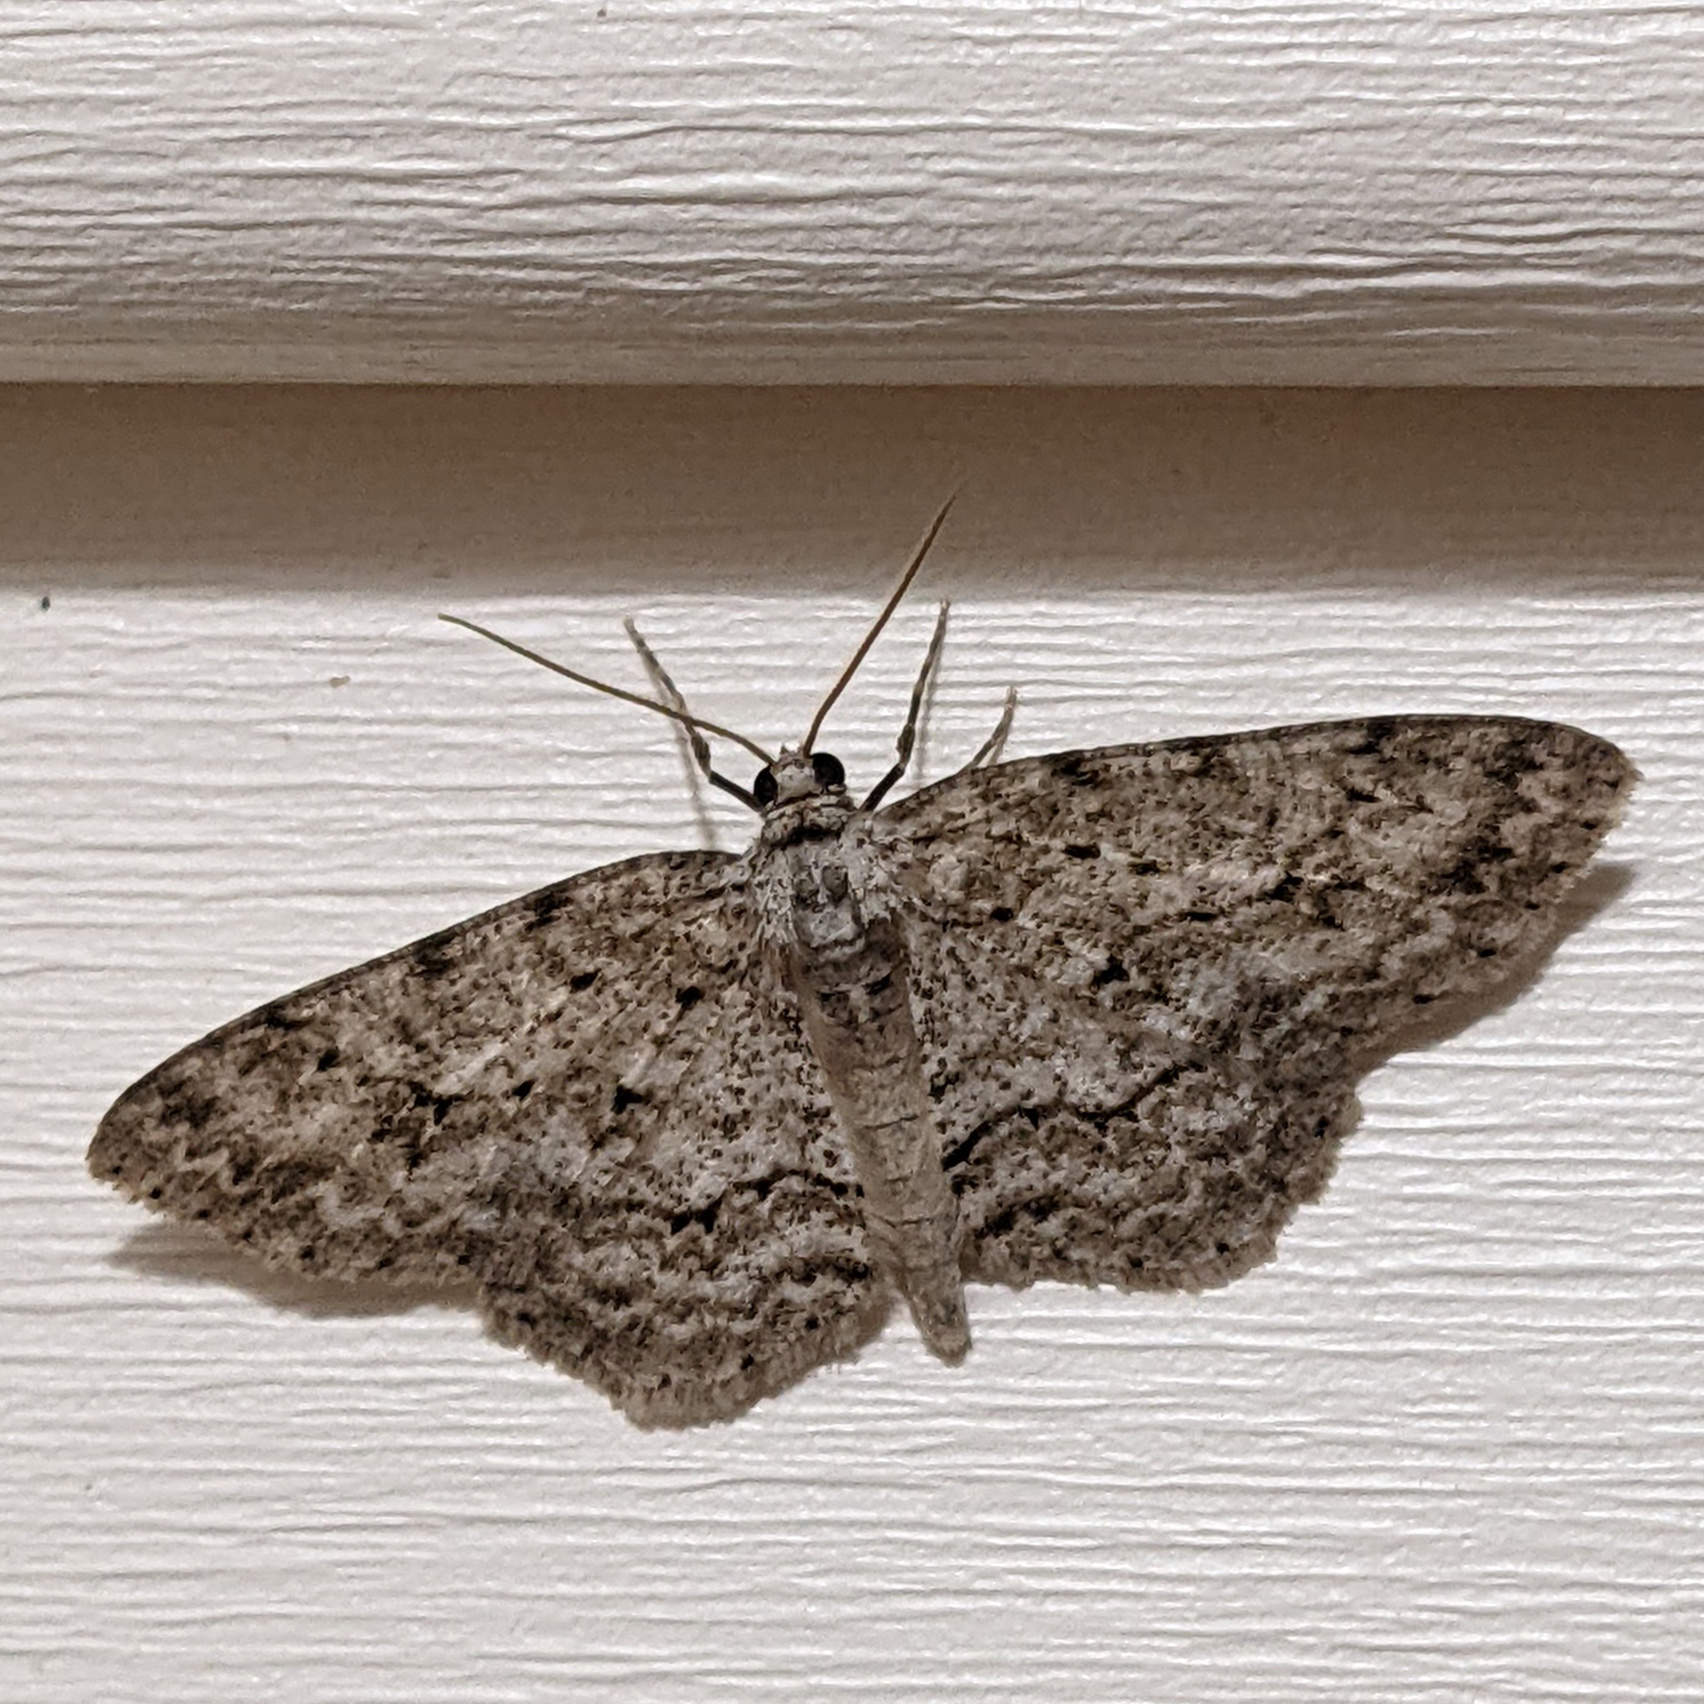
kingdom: Animalia
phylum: Arthropoda
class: Insecta
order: Lepidoptera
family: Geometridae
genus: Ectropis
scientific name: Ectropis crepuscularia
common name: Engrailed
